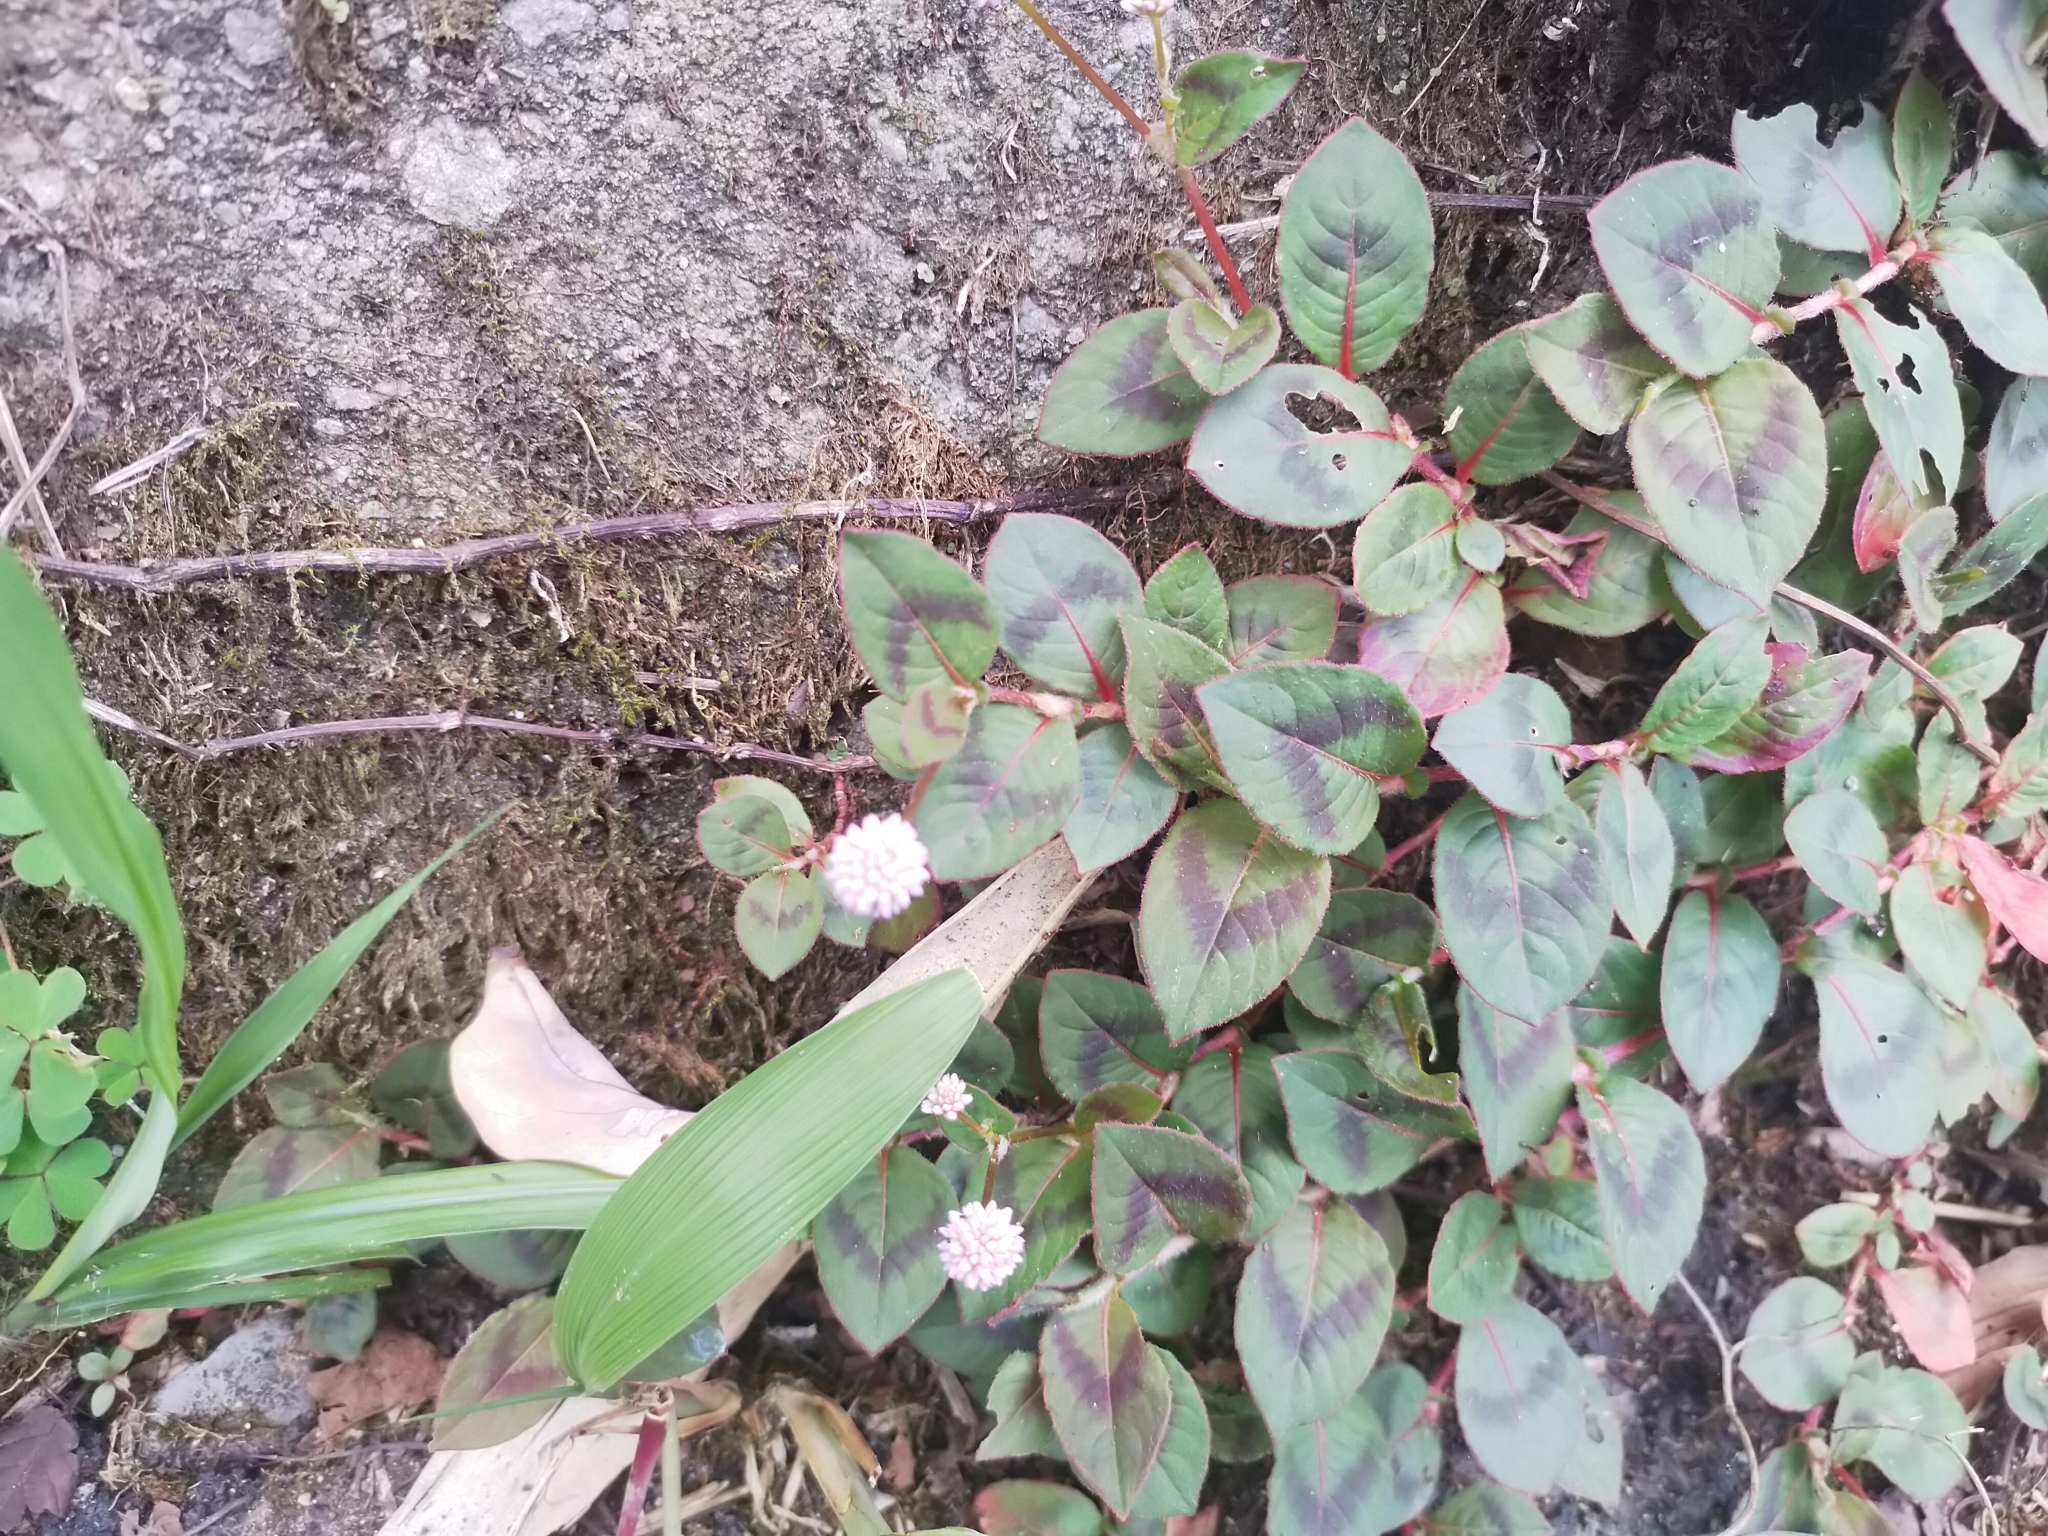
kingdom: Plantae
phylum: Tracheophyta
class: Magnoliopsida
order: Caryophyllales
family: Polygonaceae
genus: Persicaria
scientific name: Persicaria capitata
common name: Pinkhead smartweed
